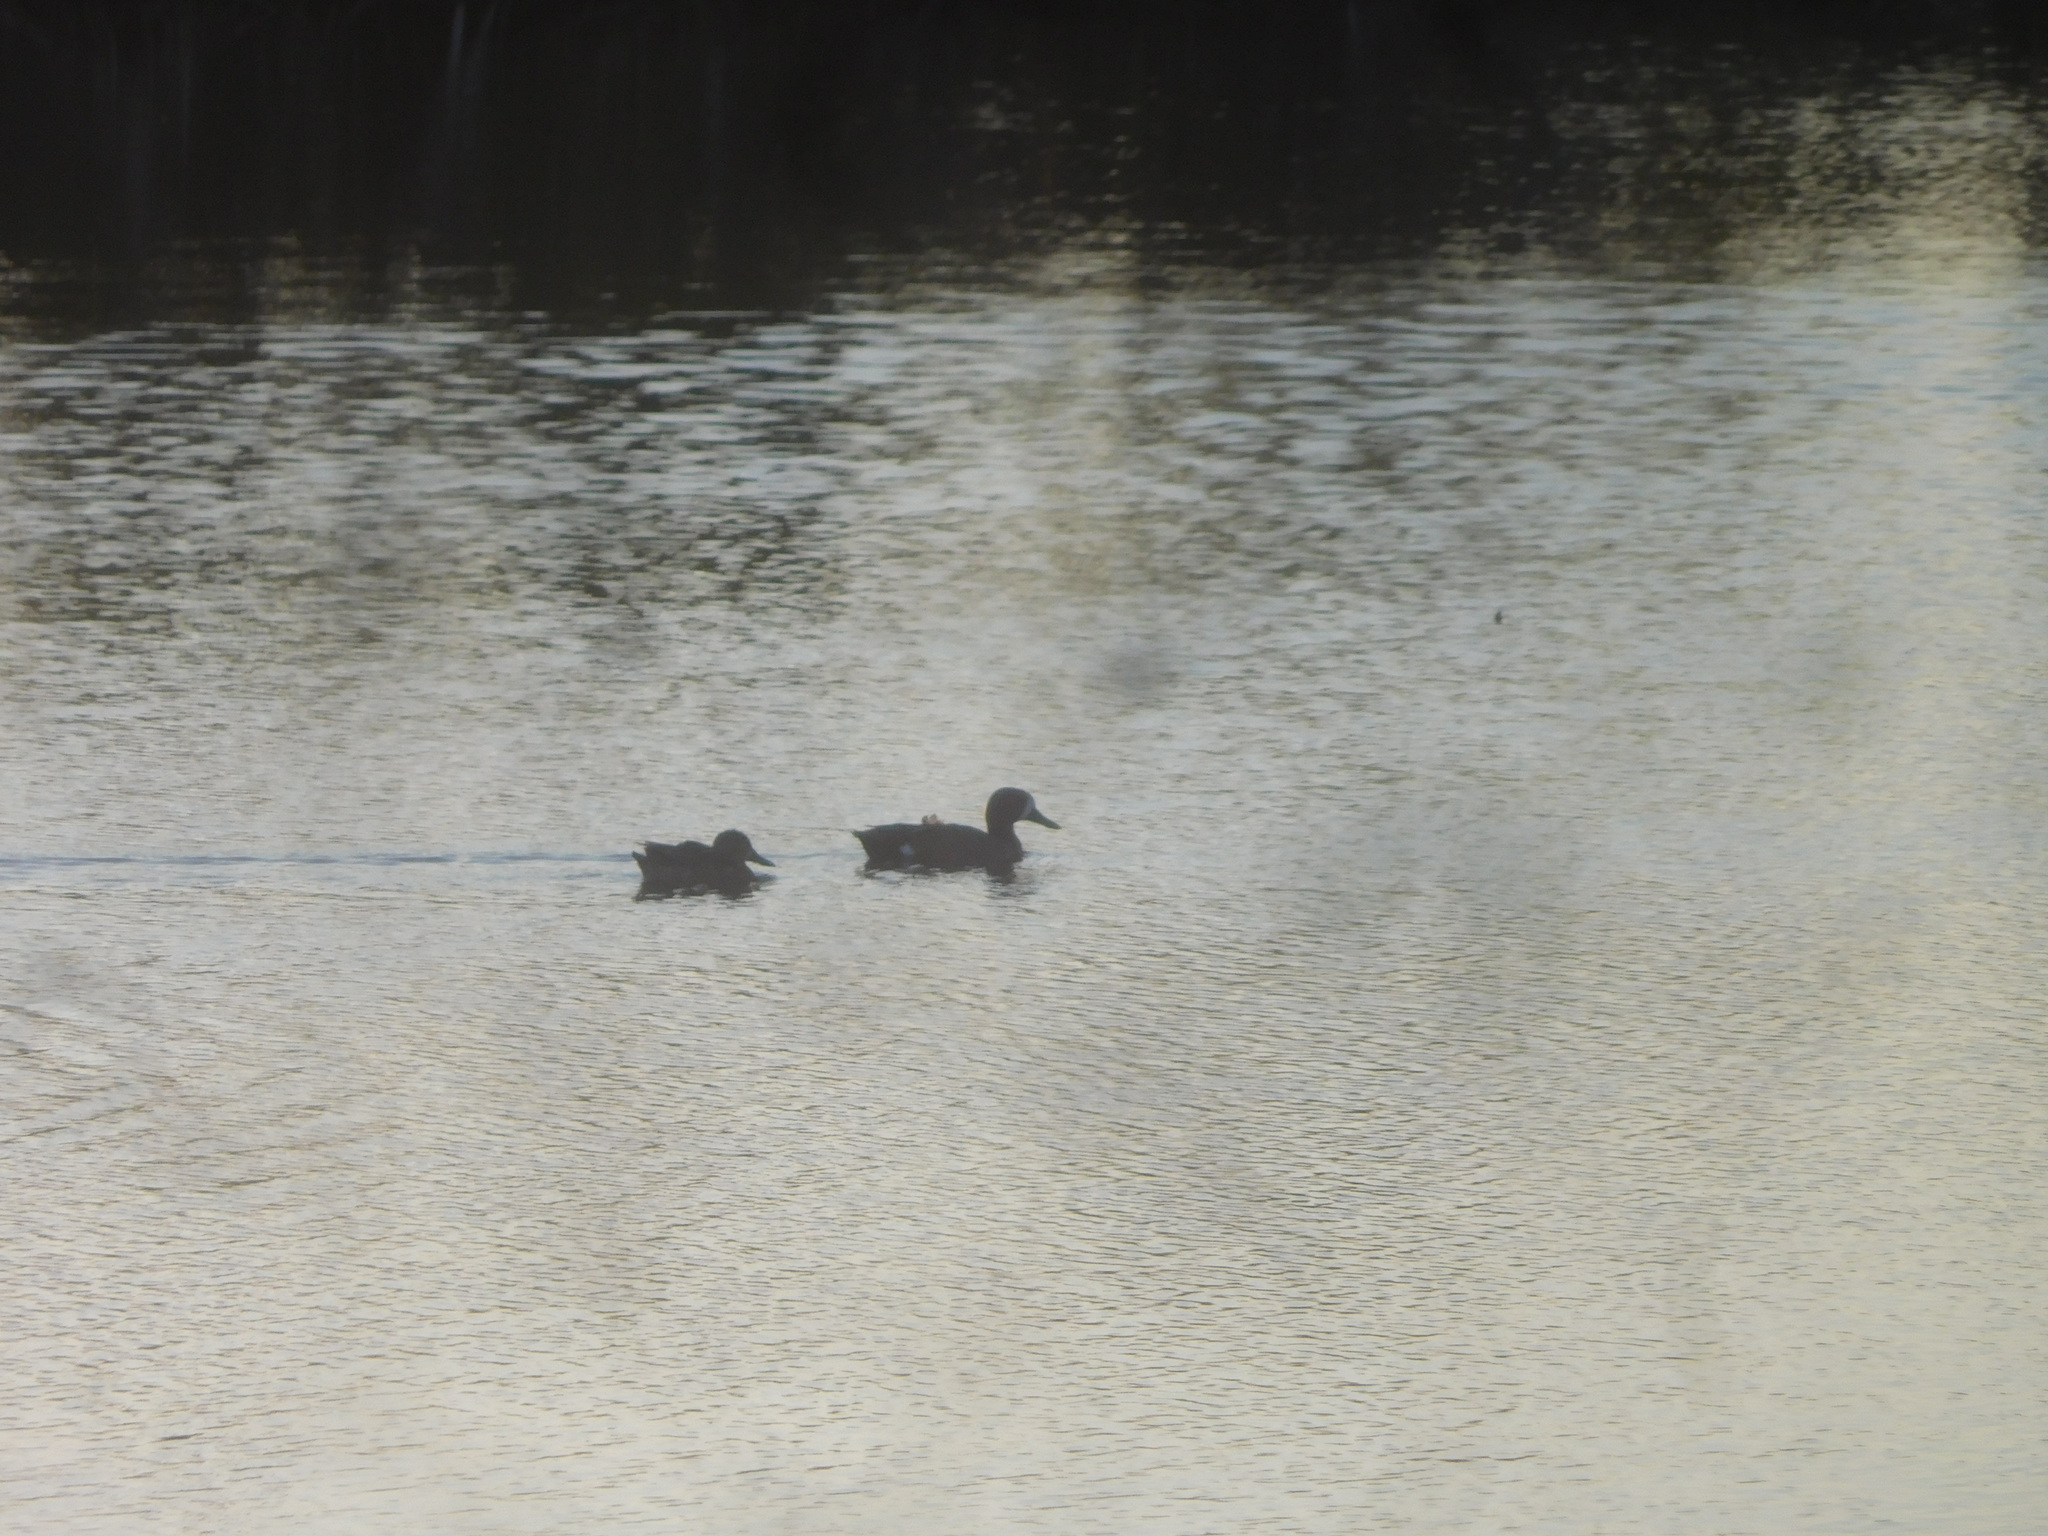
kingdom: Animalia
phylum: Chordata
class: Aves
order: Anseriformes
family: Anatidae
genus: Spatula
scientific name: Spatula discors
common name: Blue-winged teal
